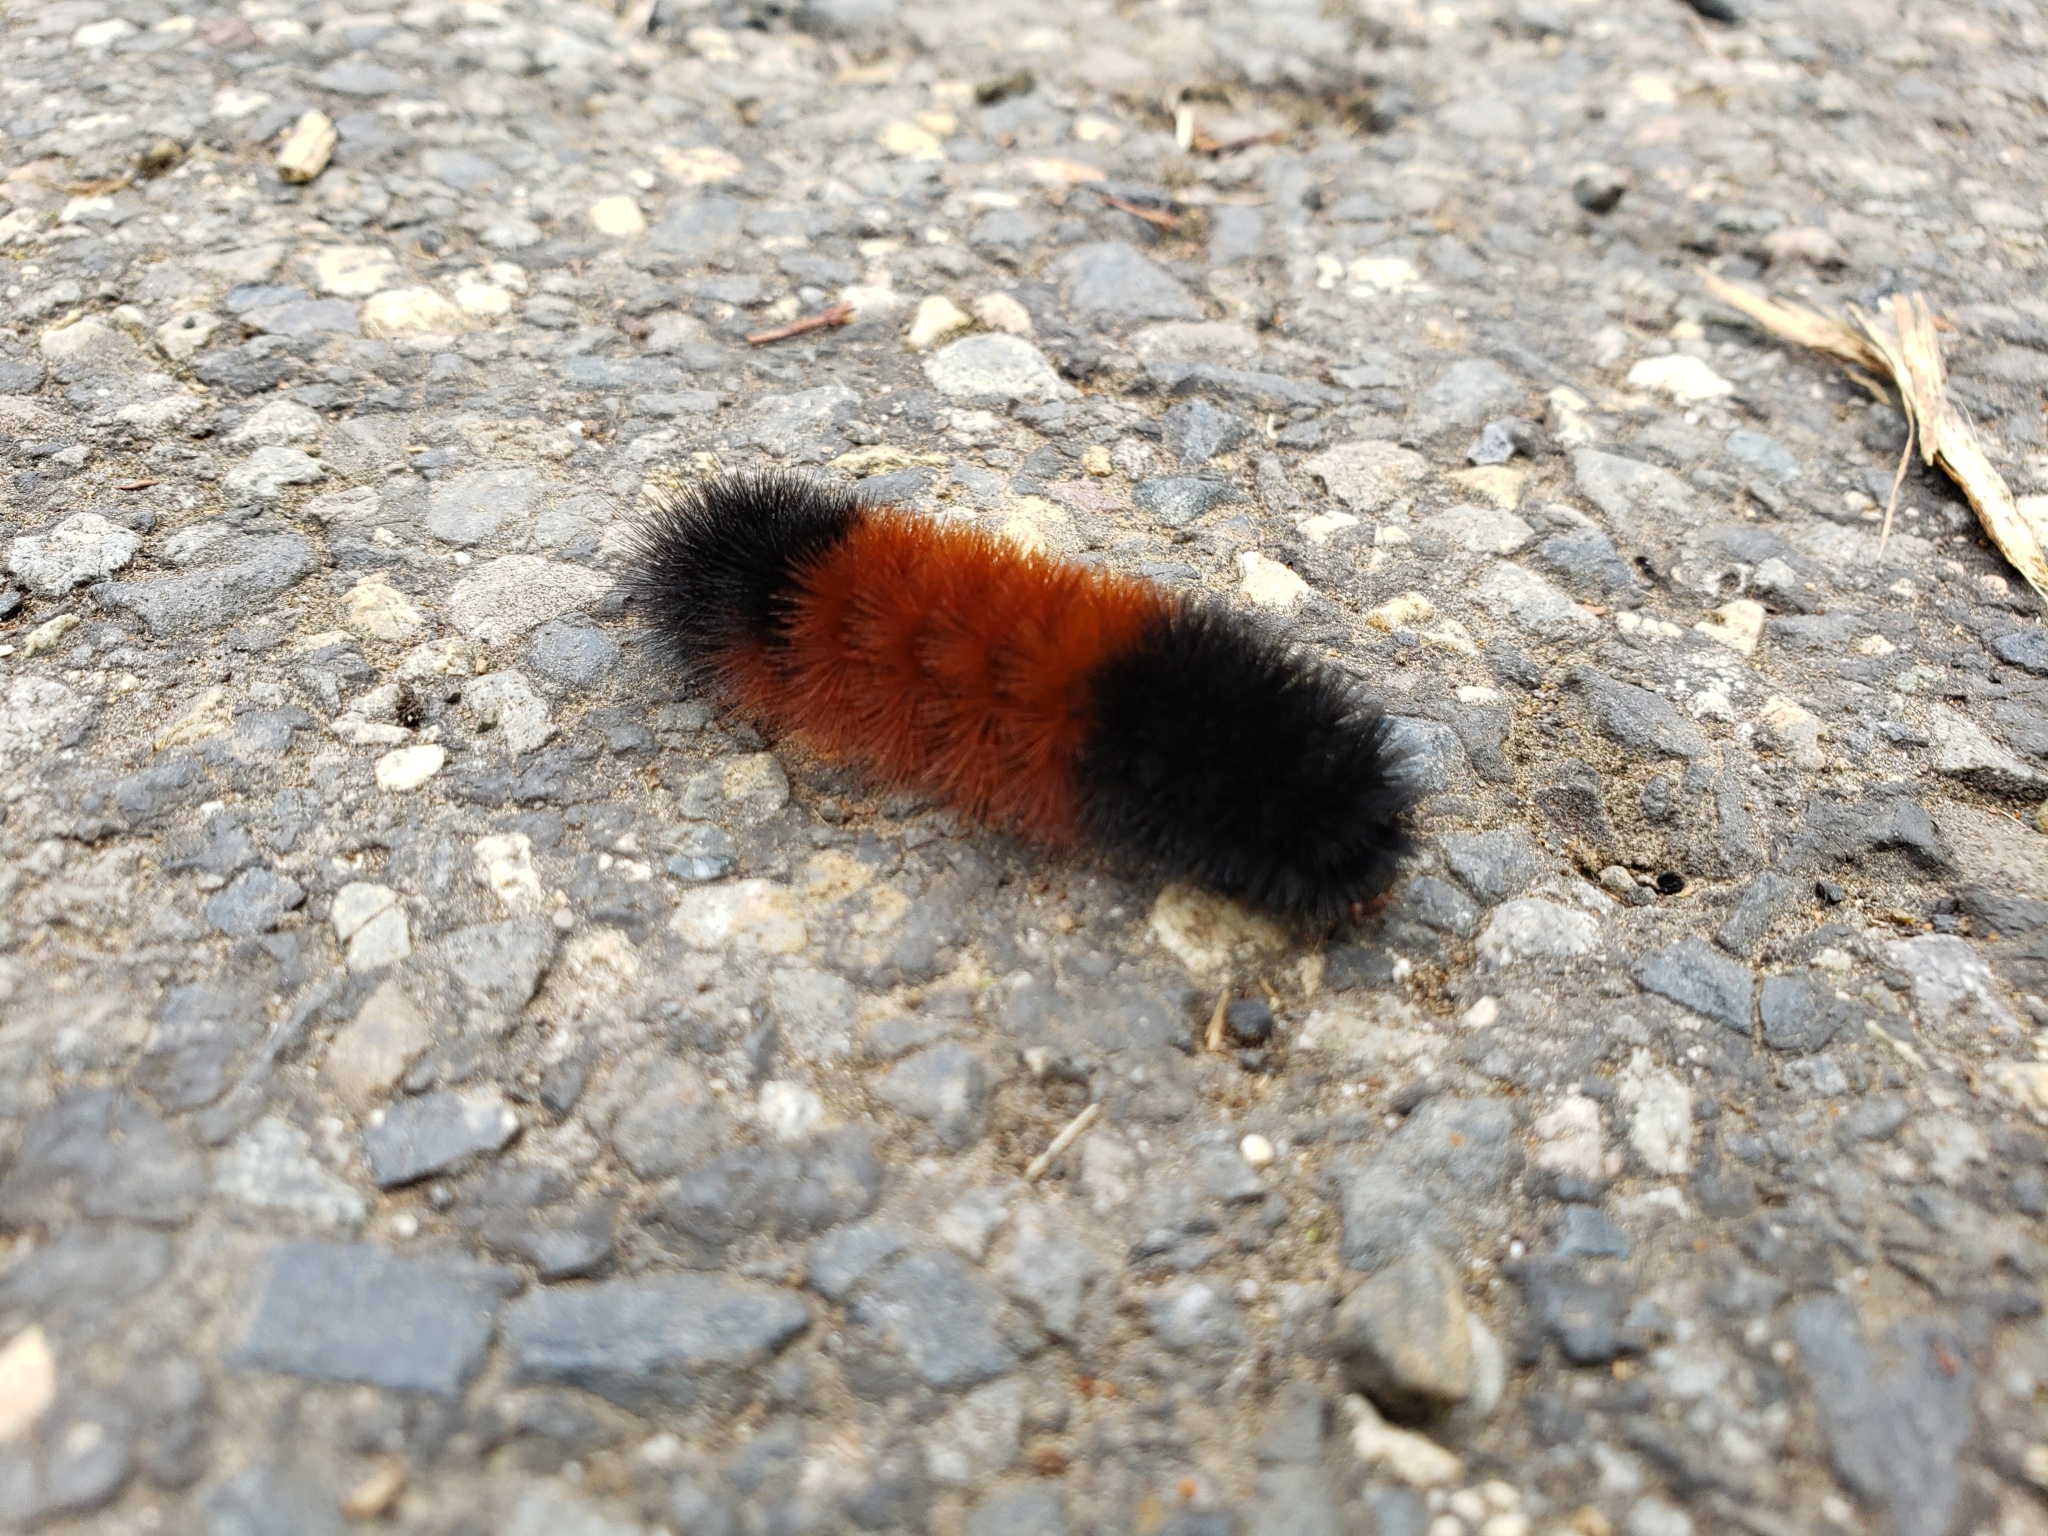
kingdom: Animalia
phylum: Arthropoda
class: Insecta
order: Lepidoptera
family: Erebidae
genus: Pyrrharctia
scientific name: Pyrrharctia isabella
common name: Isabella tiger moth
